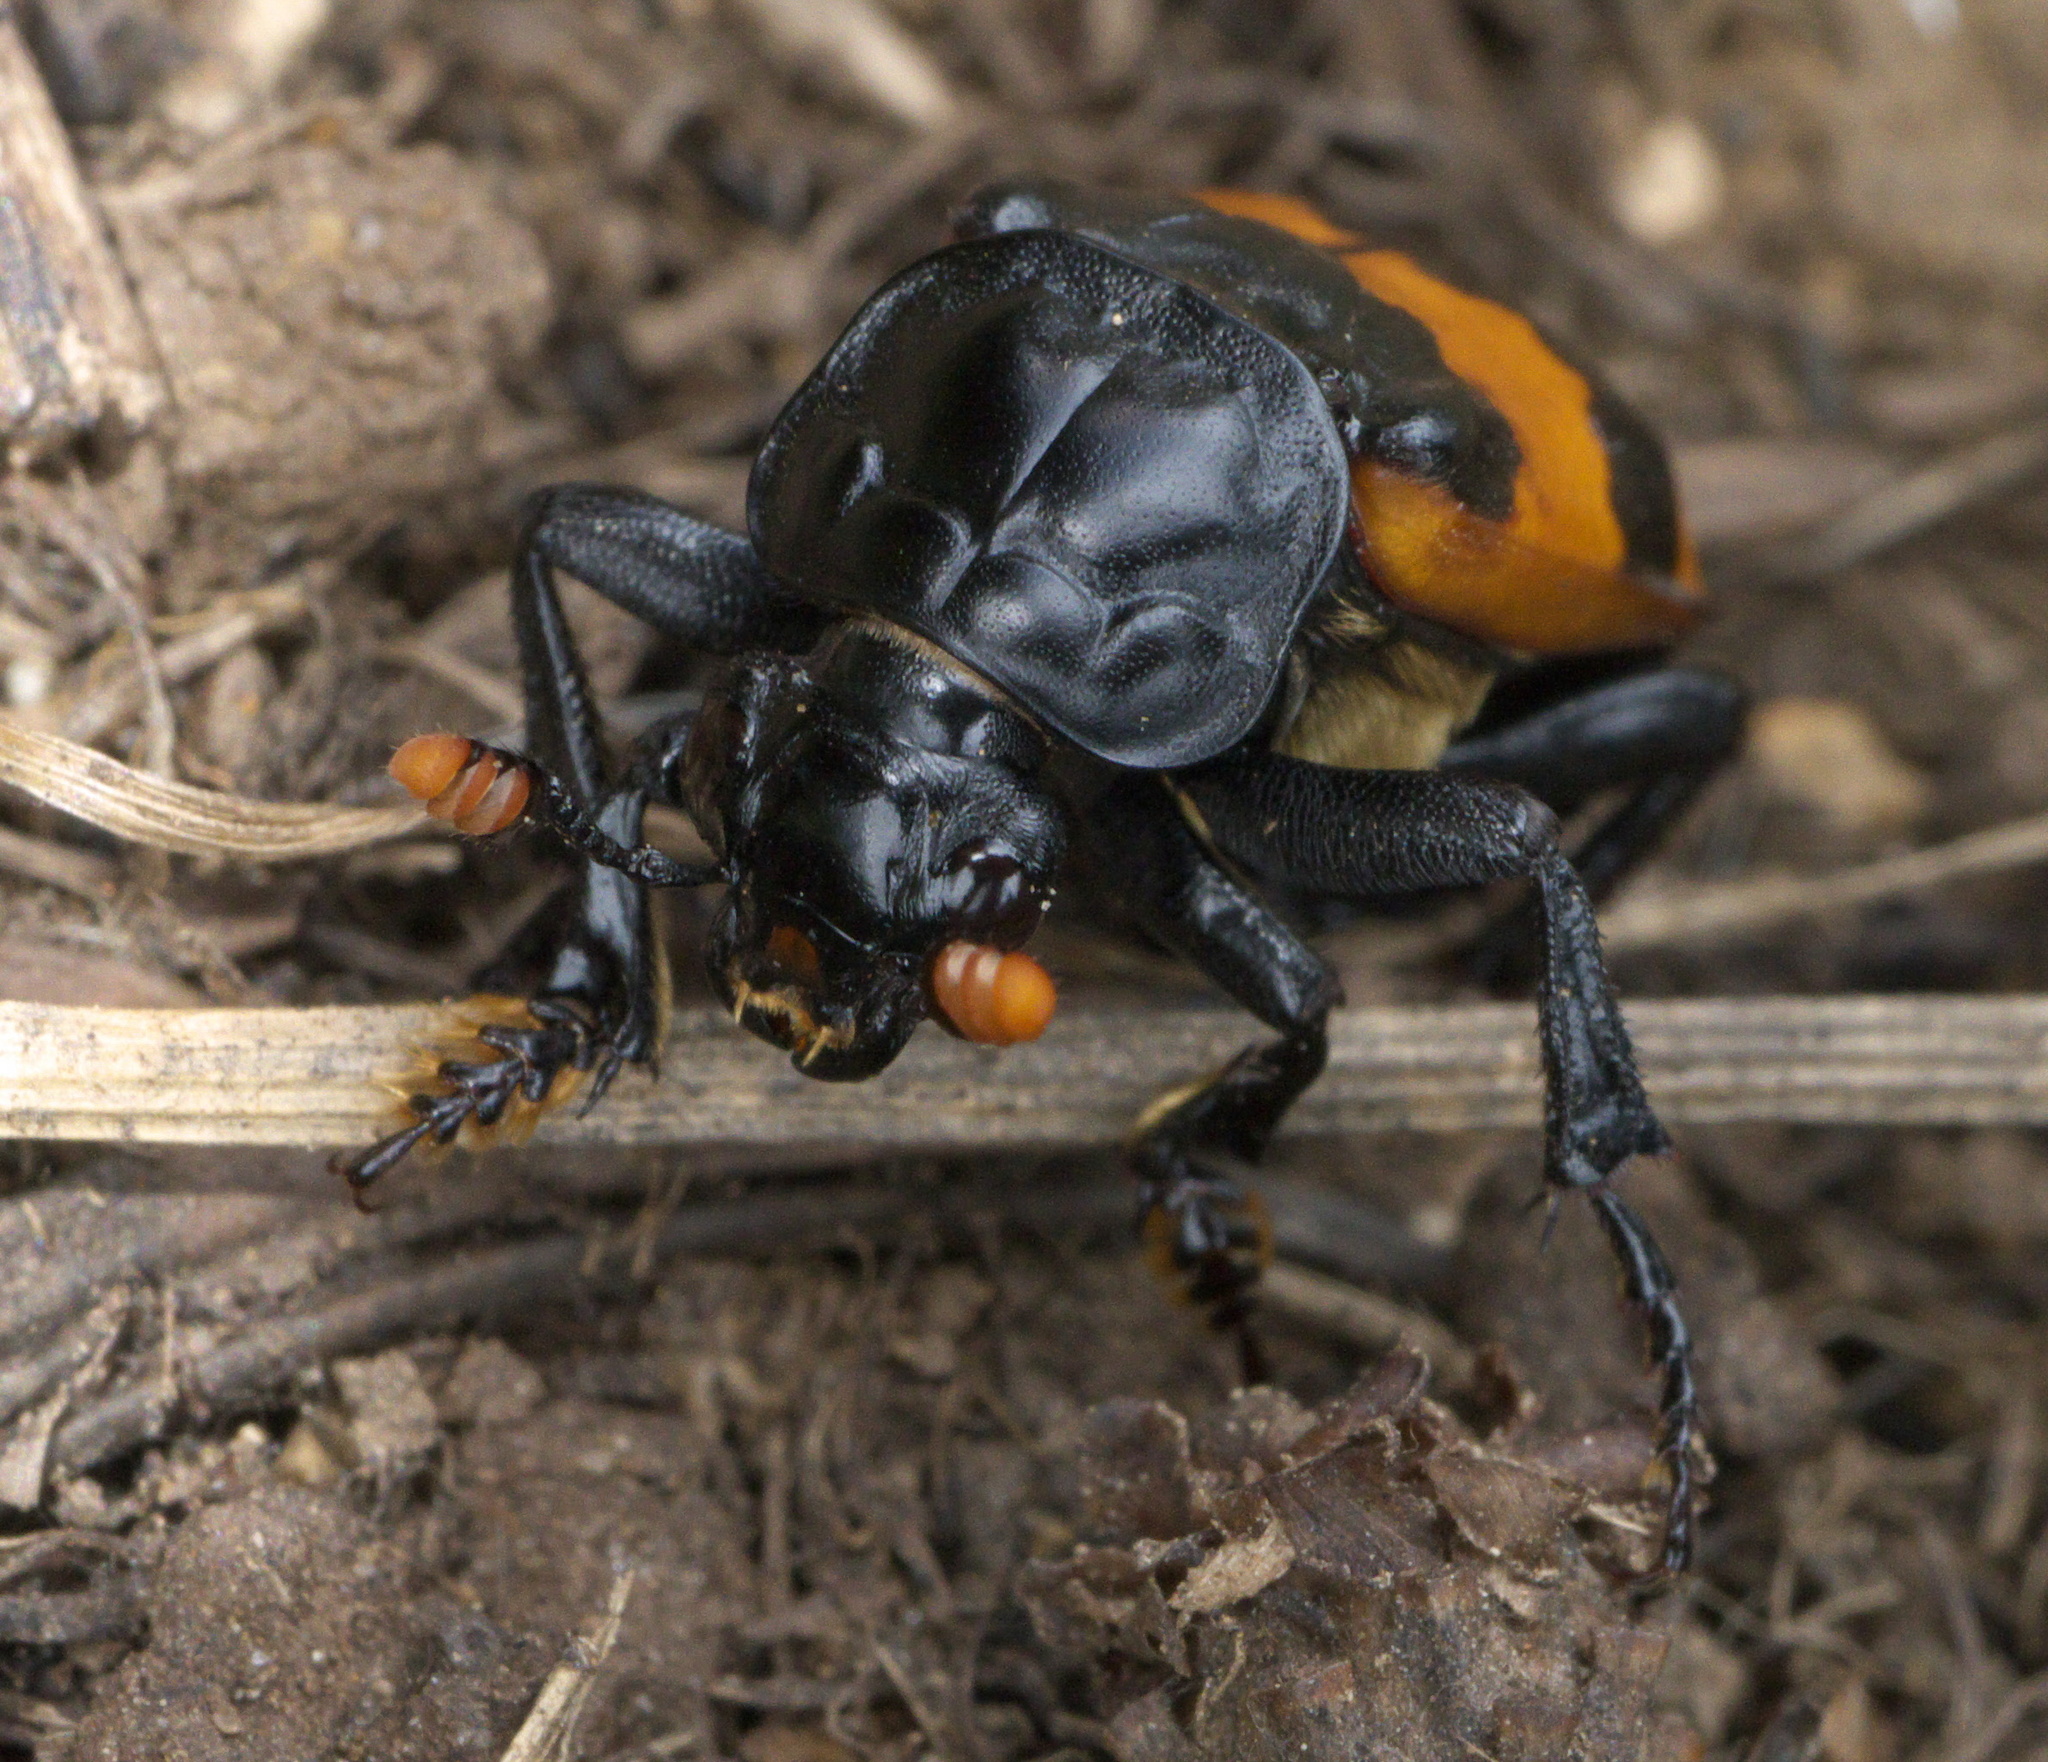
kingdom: Animalia
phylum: Arthropoda
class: Insecta
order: Coleoptera
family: Staphylinidae
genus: Nicrophorus
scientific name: Nicrophorus investigator
